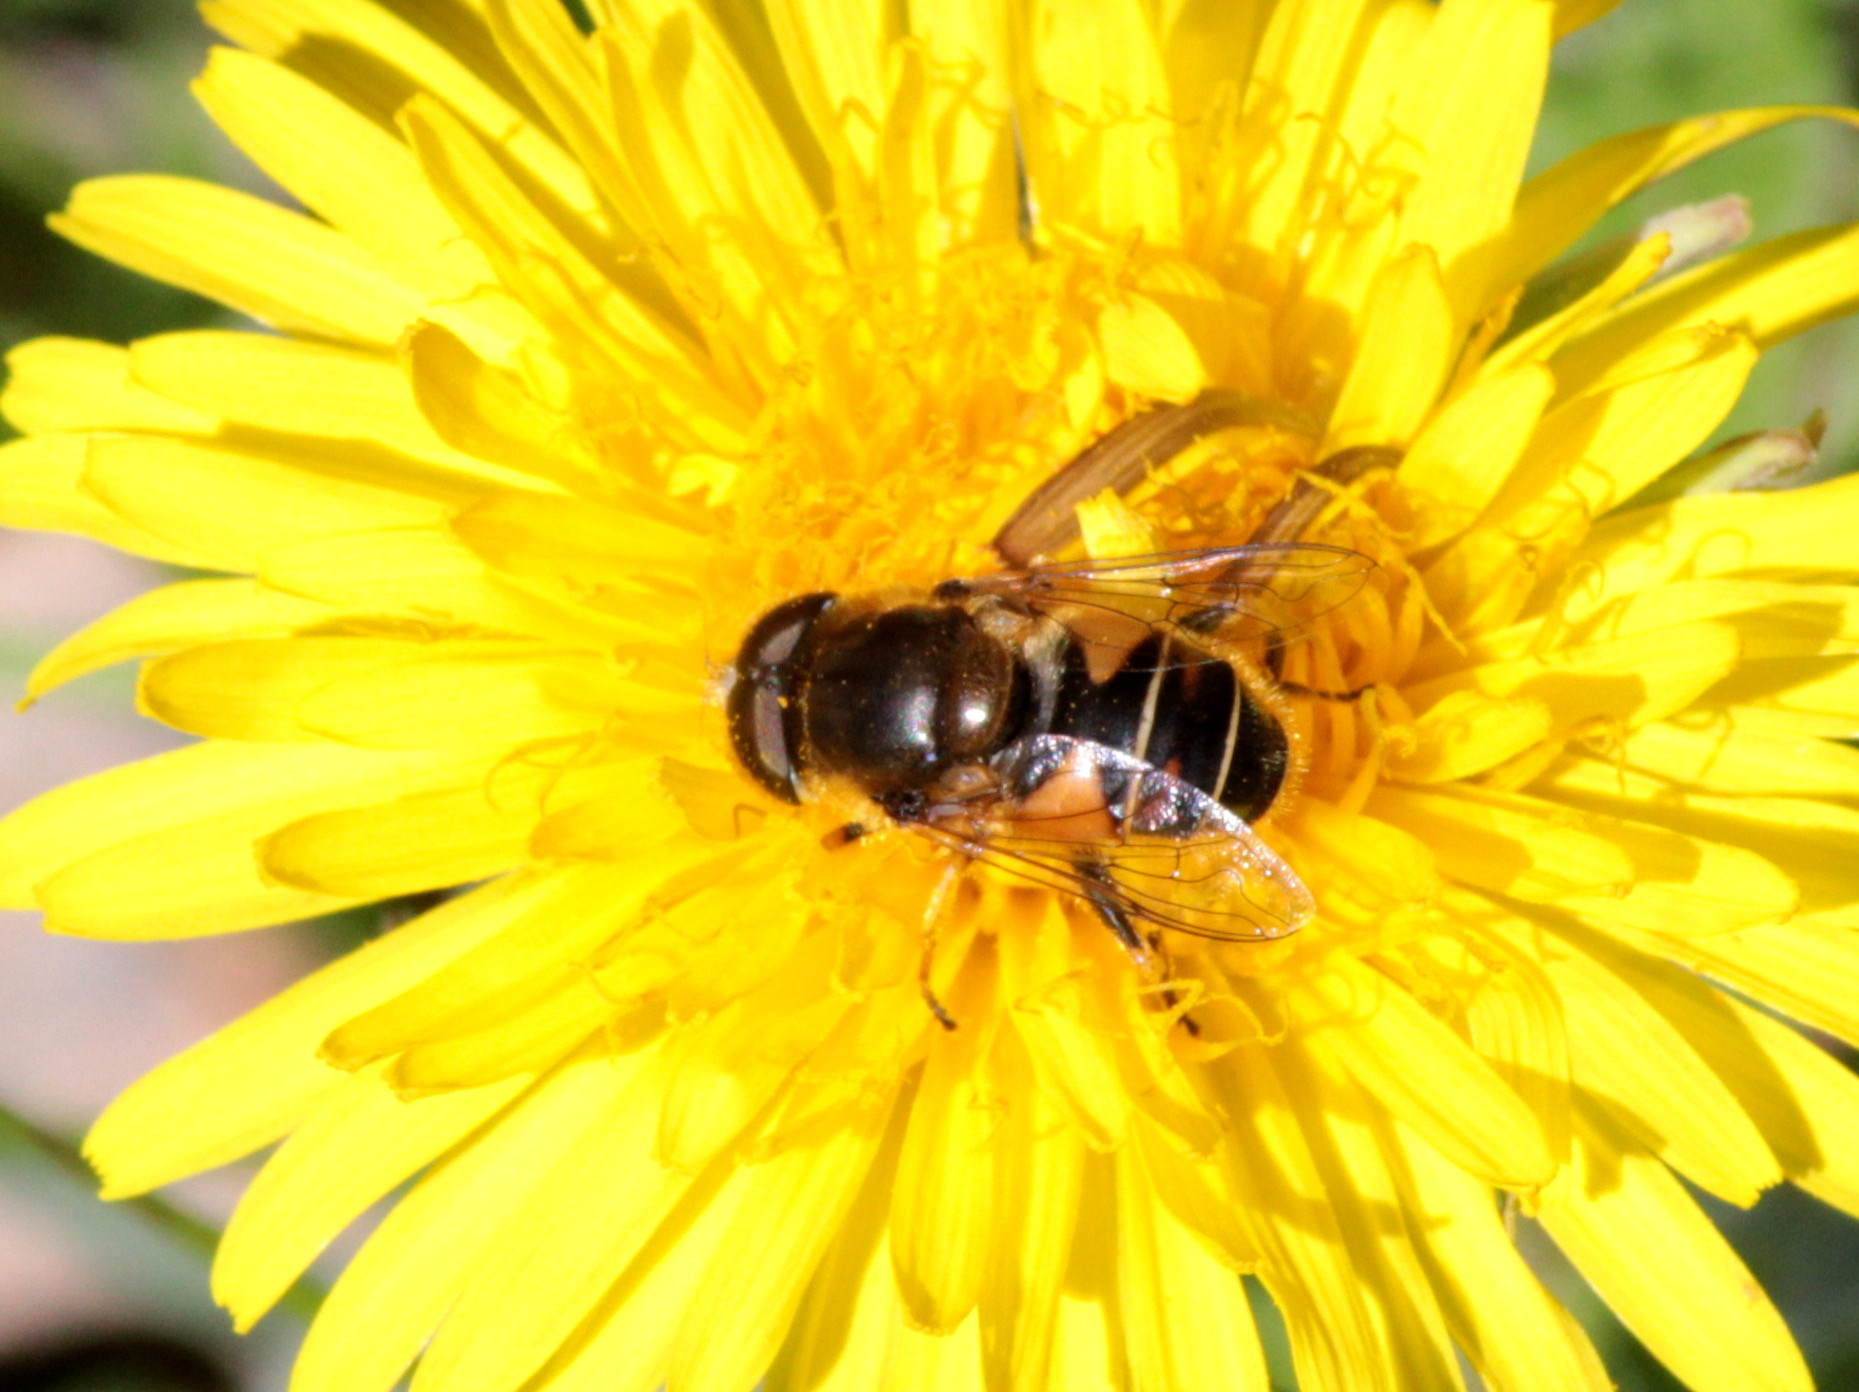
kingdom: Animalia
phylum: Arthropoda
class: Insecta
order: Diptera
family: Syrphidae
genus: Eristalis
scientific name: Eristalis nemorum
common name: Orange-spined drone fly
